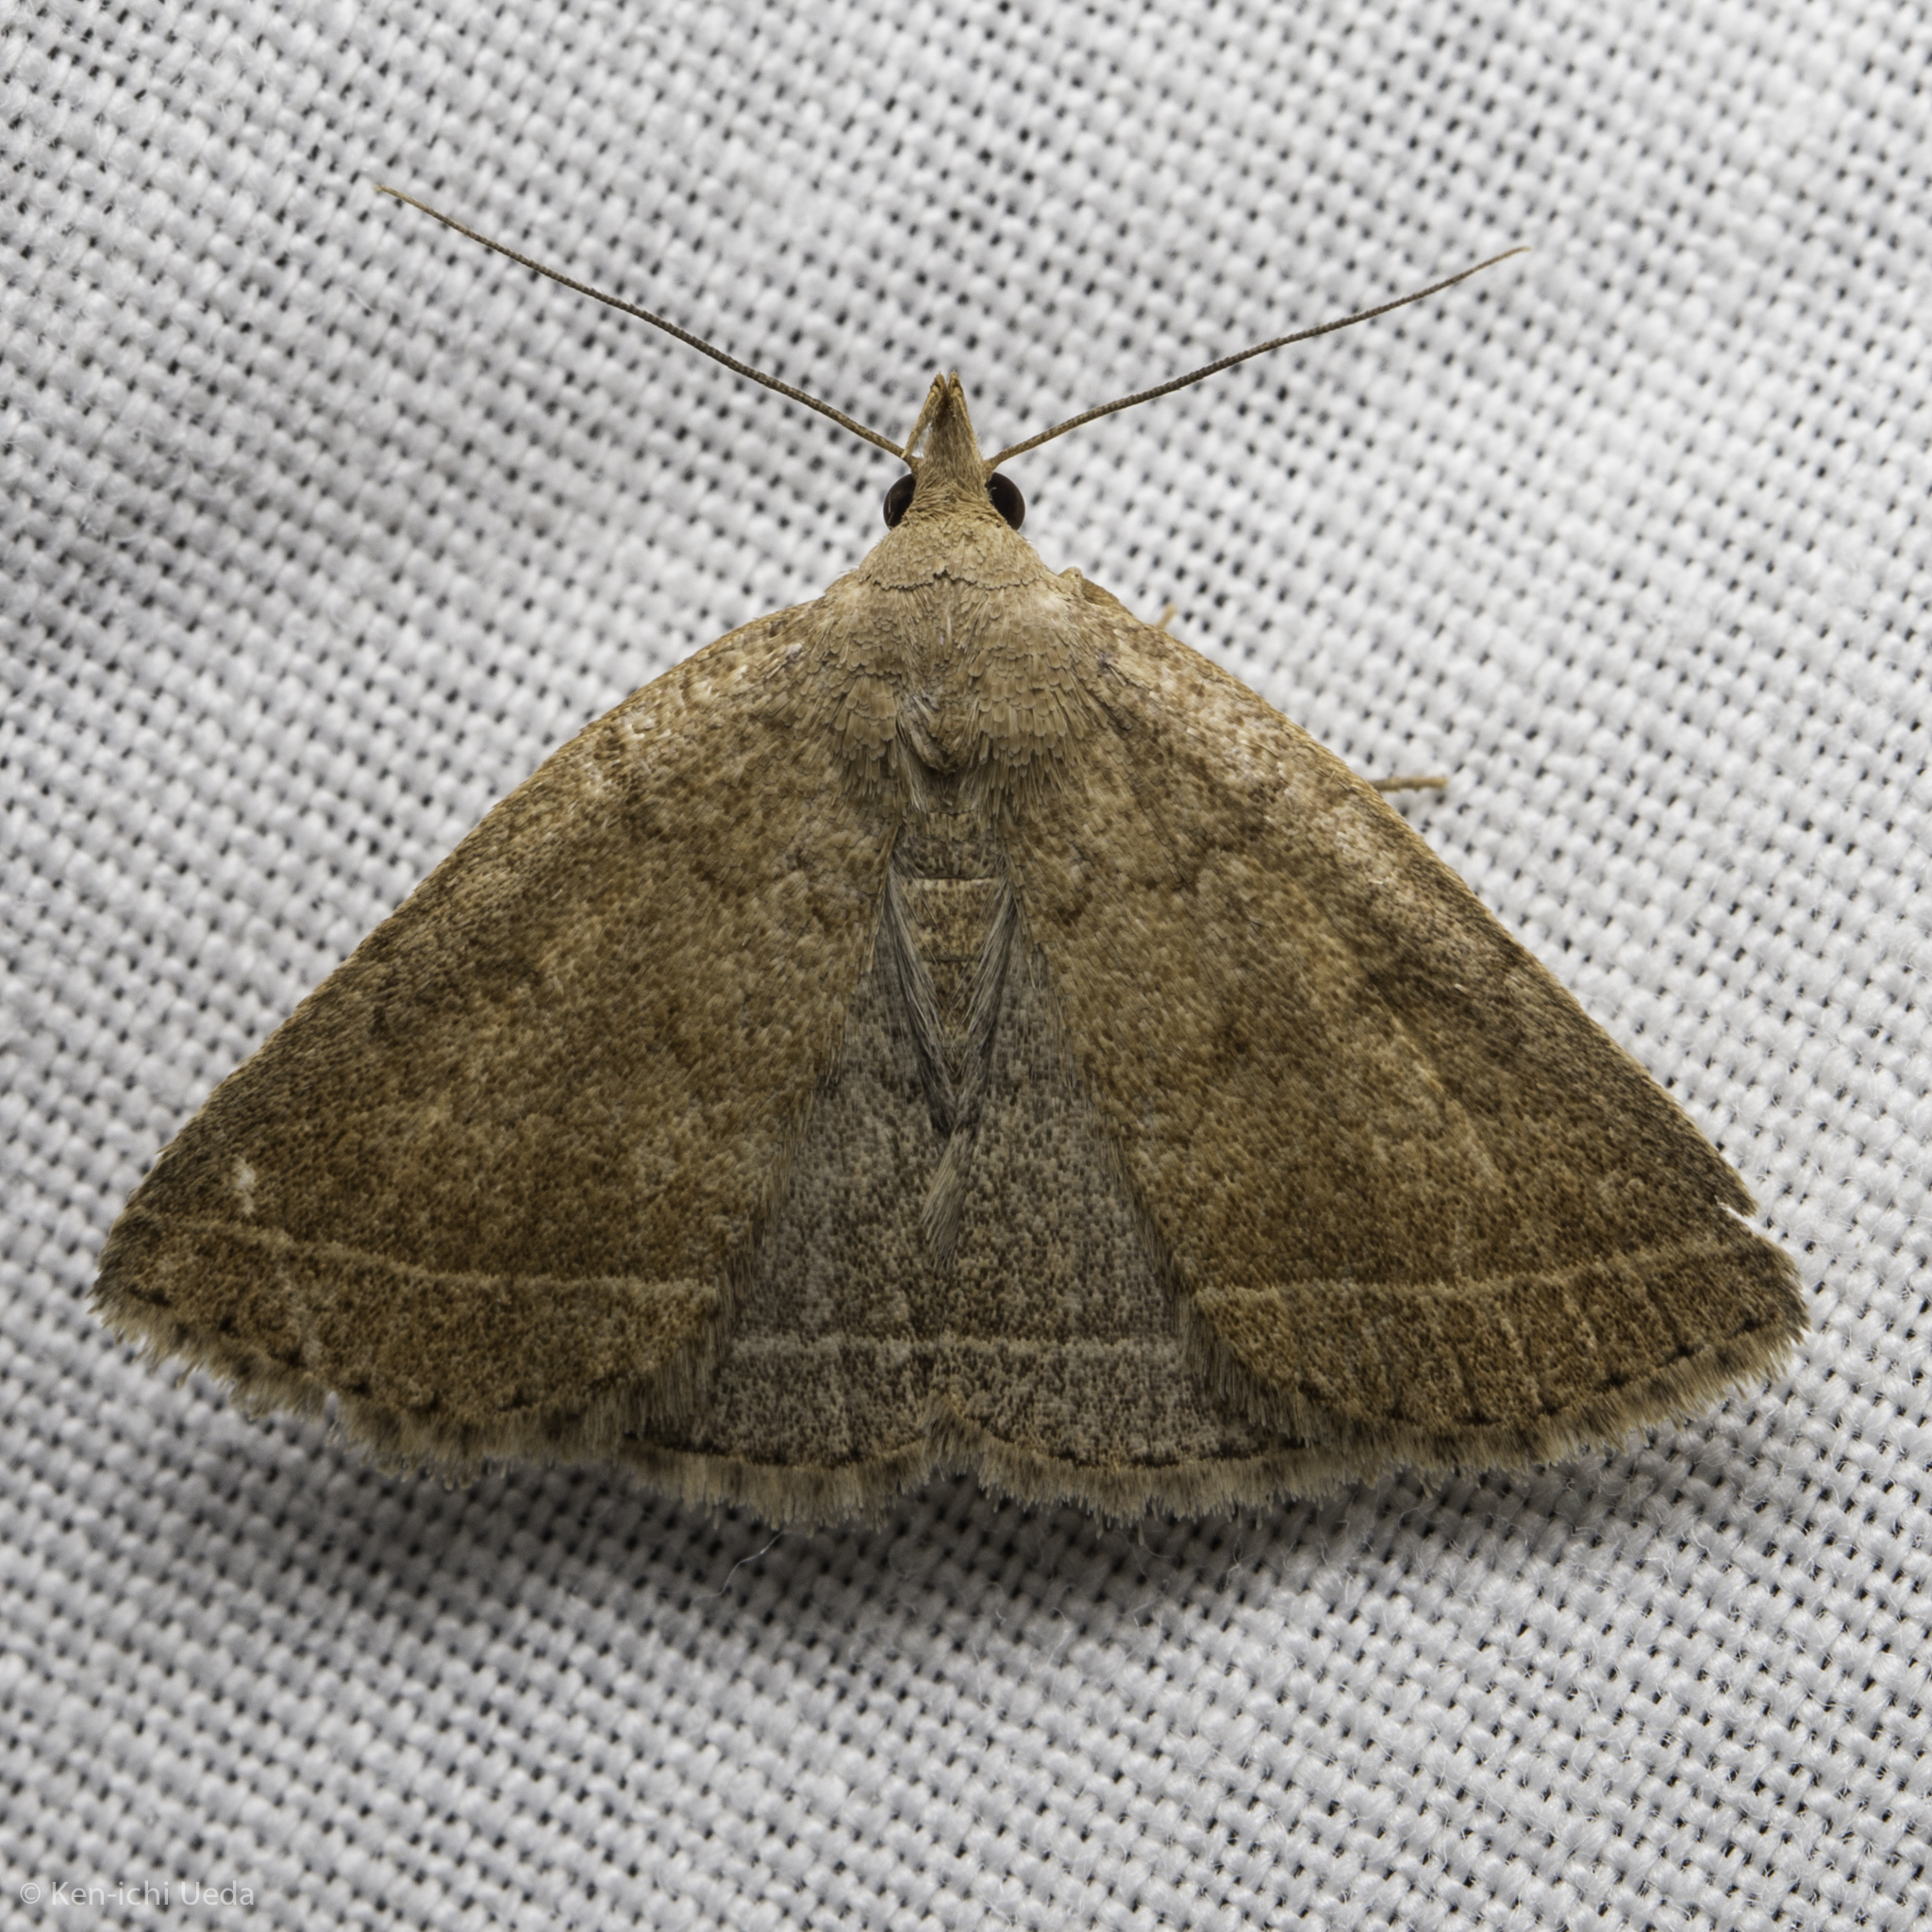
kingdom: Animalia
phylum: Arthropoda
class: Insecta
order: Lepidoptera
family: Erebidae
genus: Zanclognatha
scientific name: Zanclognatha jacchusalis
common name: Yellowish zanclognatha
